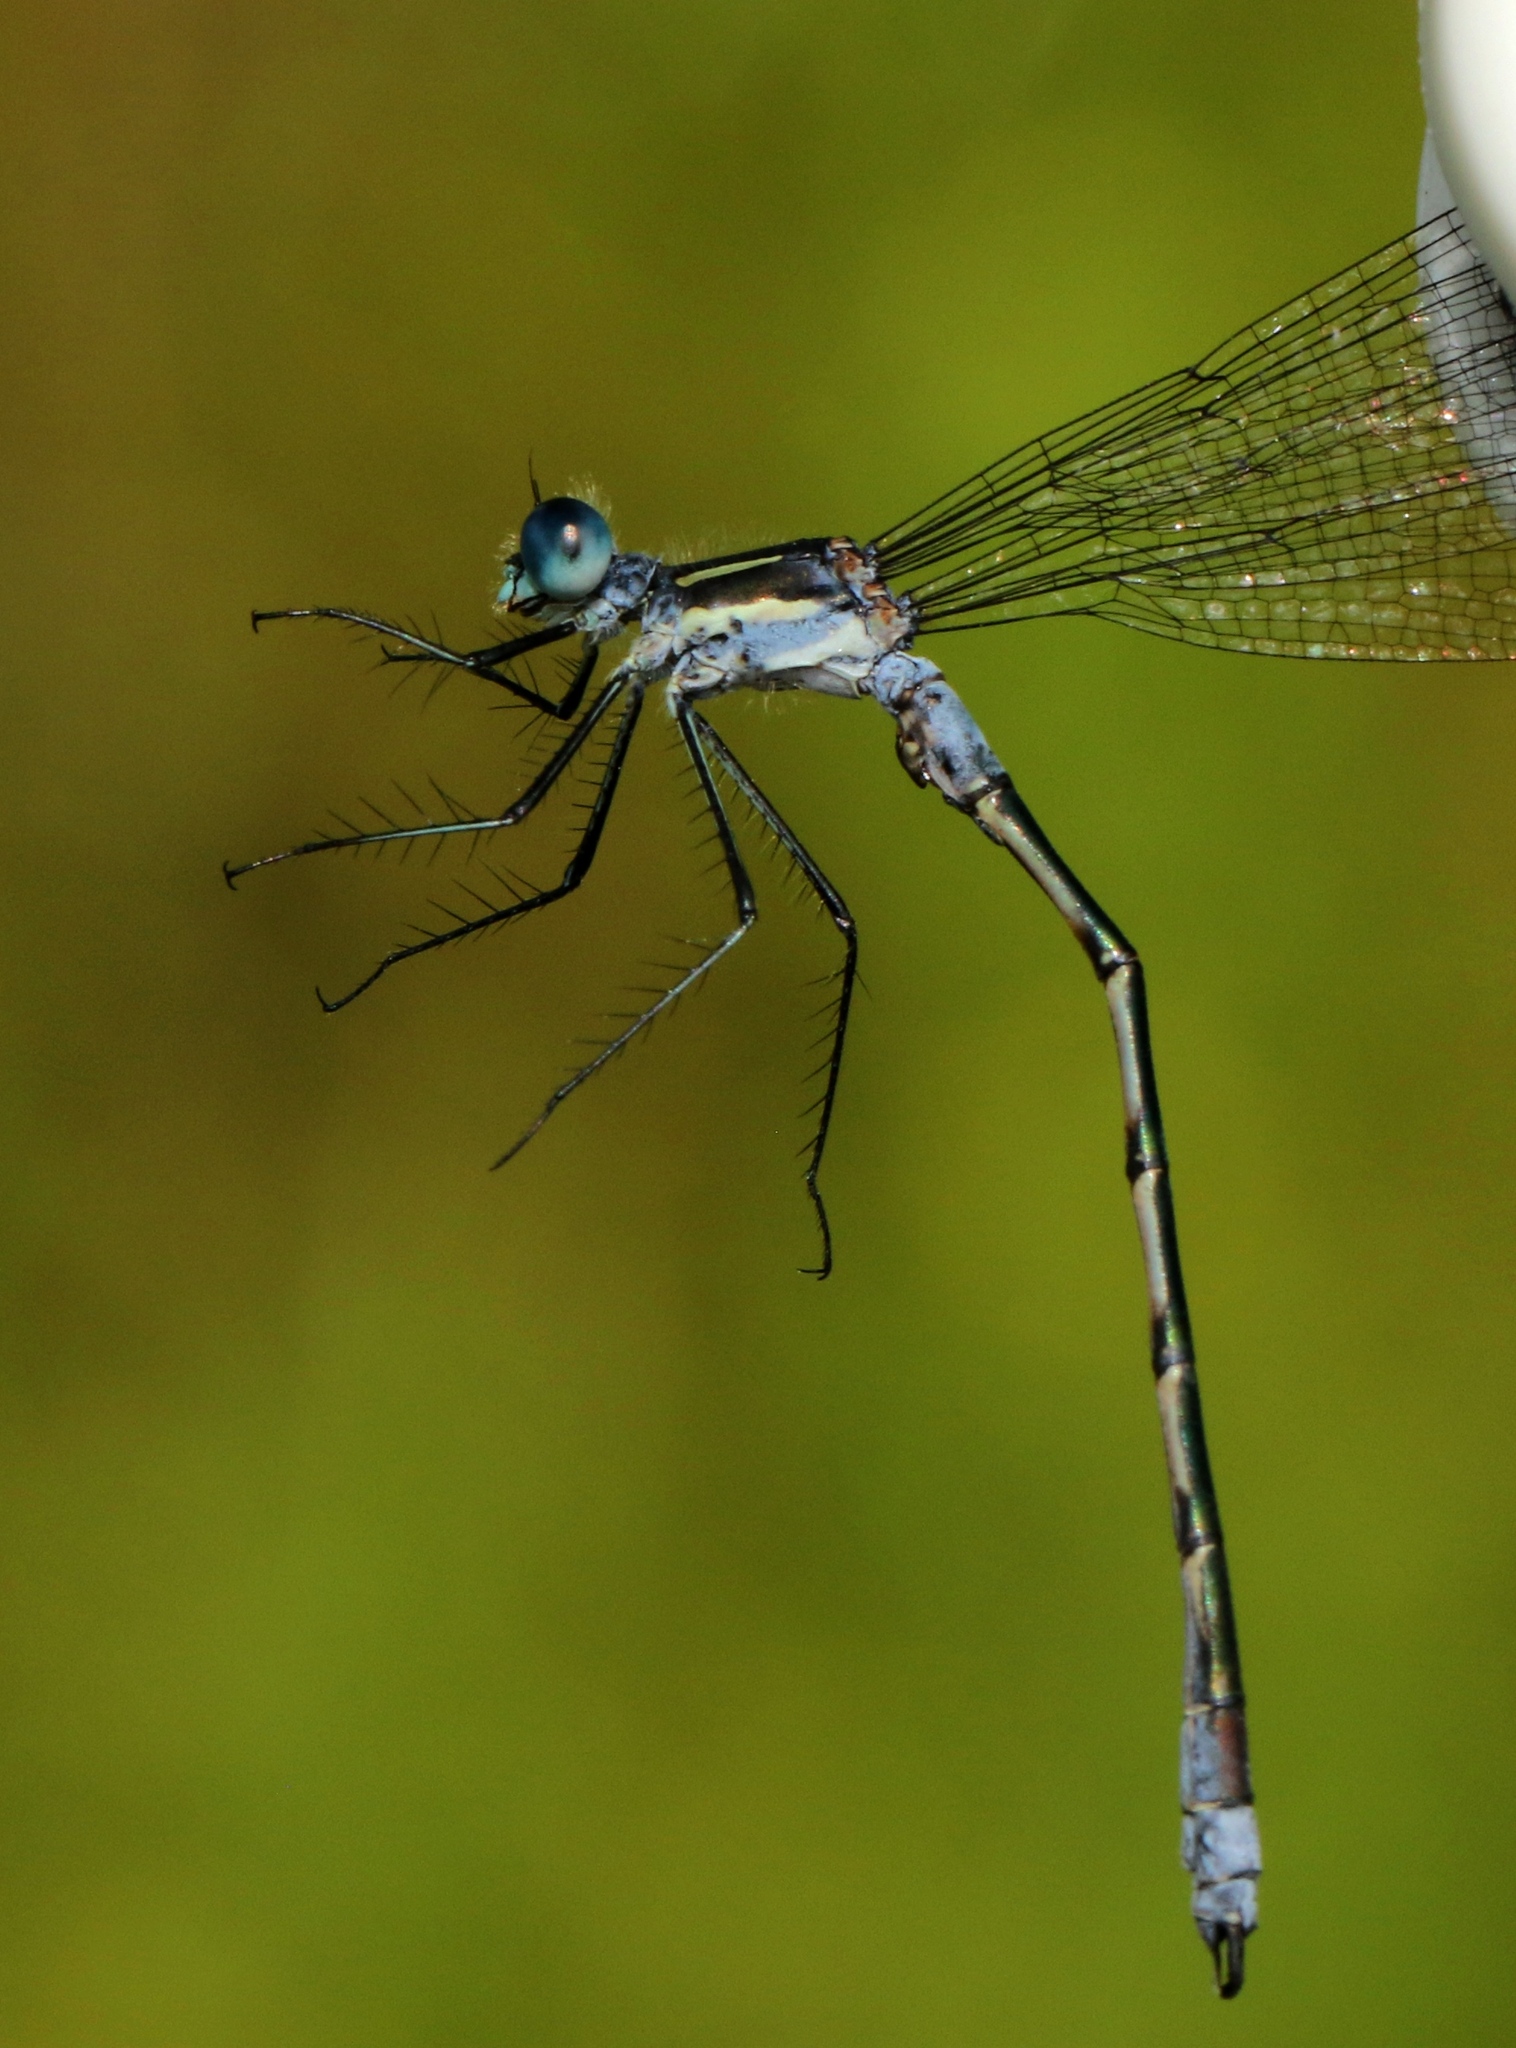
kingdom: Animalia
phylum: Arthropoda
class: Insecta
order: Odonata
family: Lestidae
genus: Lestes
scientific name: Lestes disjunctus
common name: Northern spreadwing
